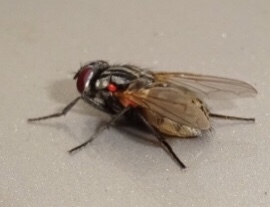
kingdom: Animalia
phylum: Arthropoda
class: Insecta
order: Diptera
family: Muscidae
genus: Musca
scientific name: Musca domestica
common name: House fly
